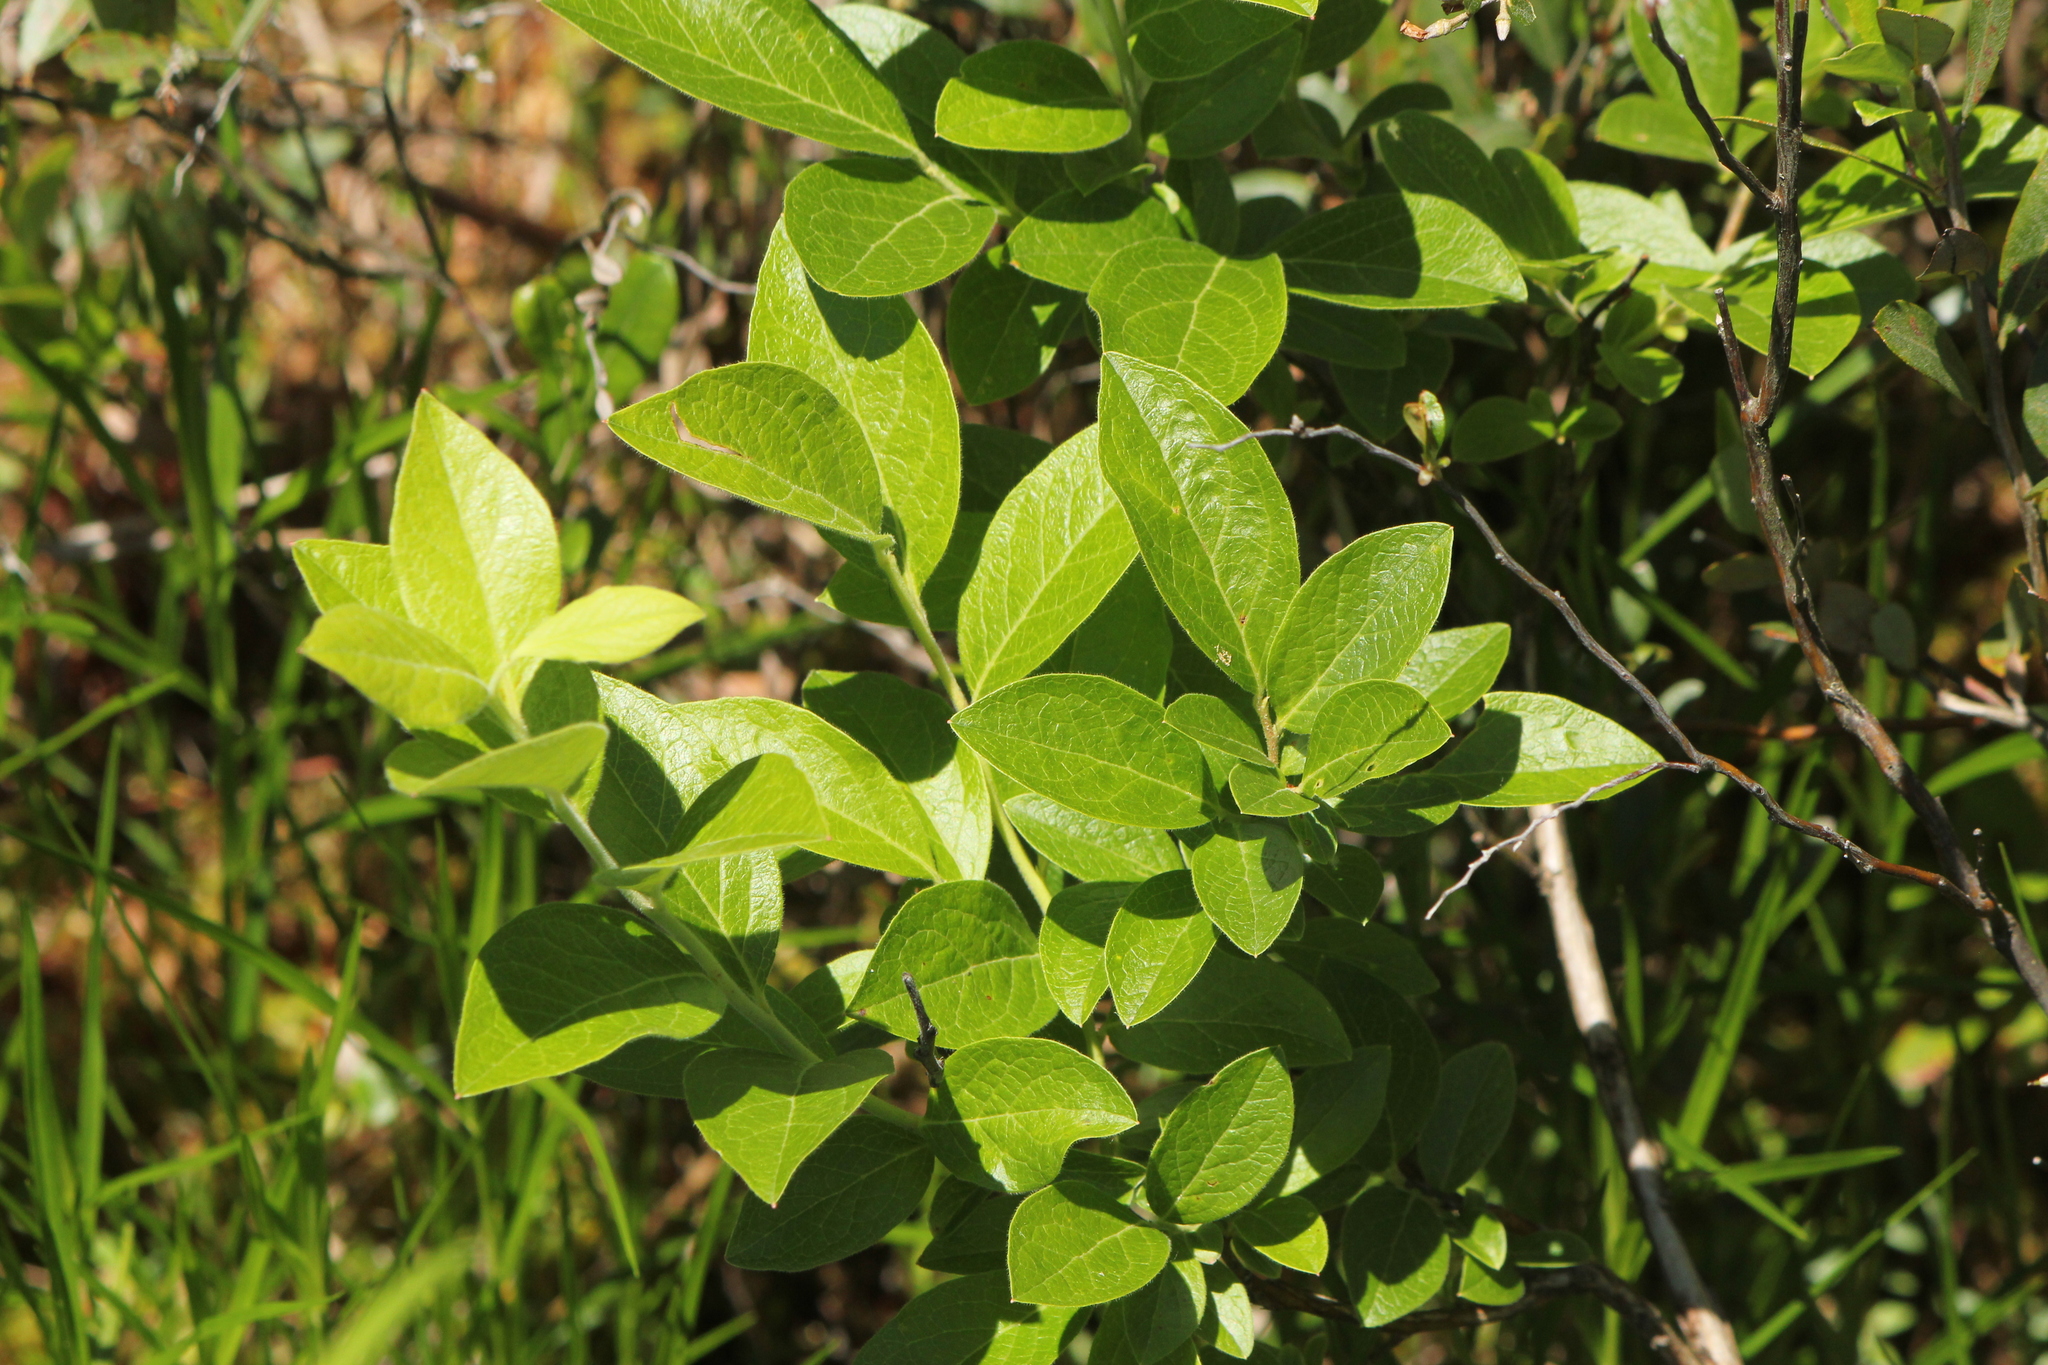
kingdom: Plantae
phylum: Tracheophyta
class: Magnoliopsida
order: Ericales
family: Ericaceae
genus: Gaylussacia
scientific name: Gaylussacia baccata
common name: Black huckleberry
